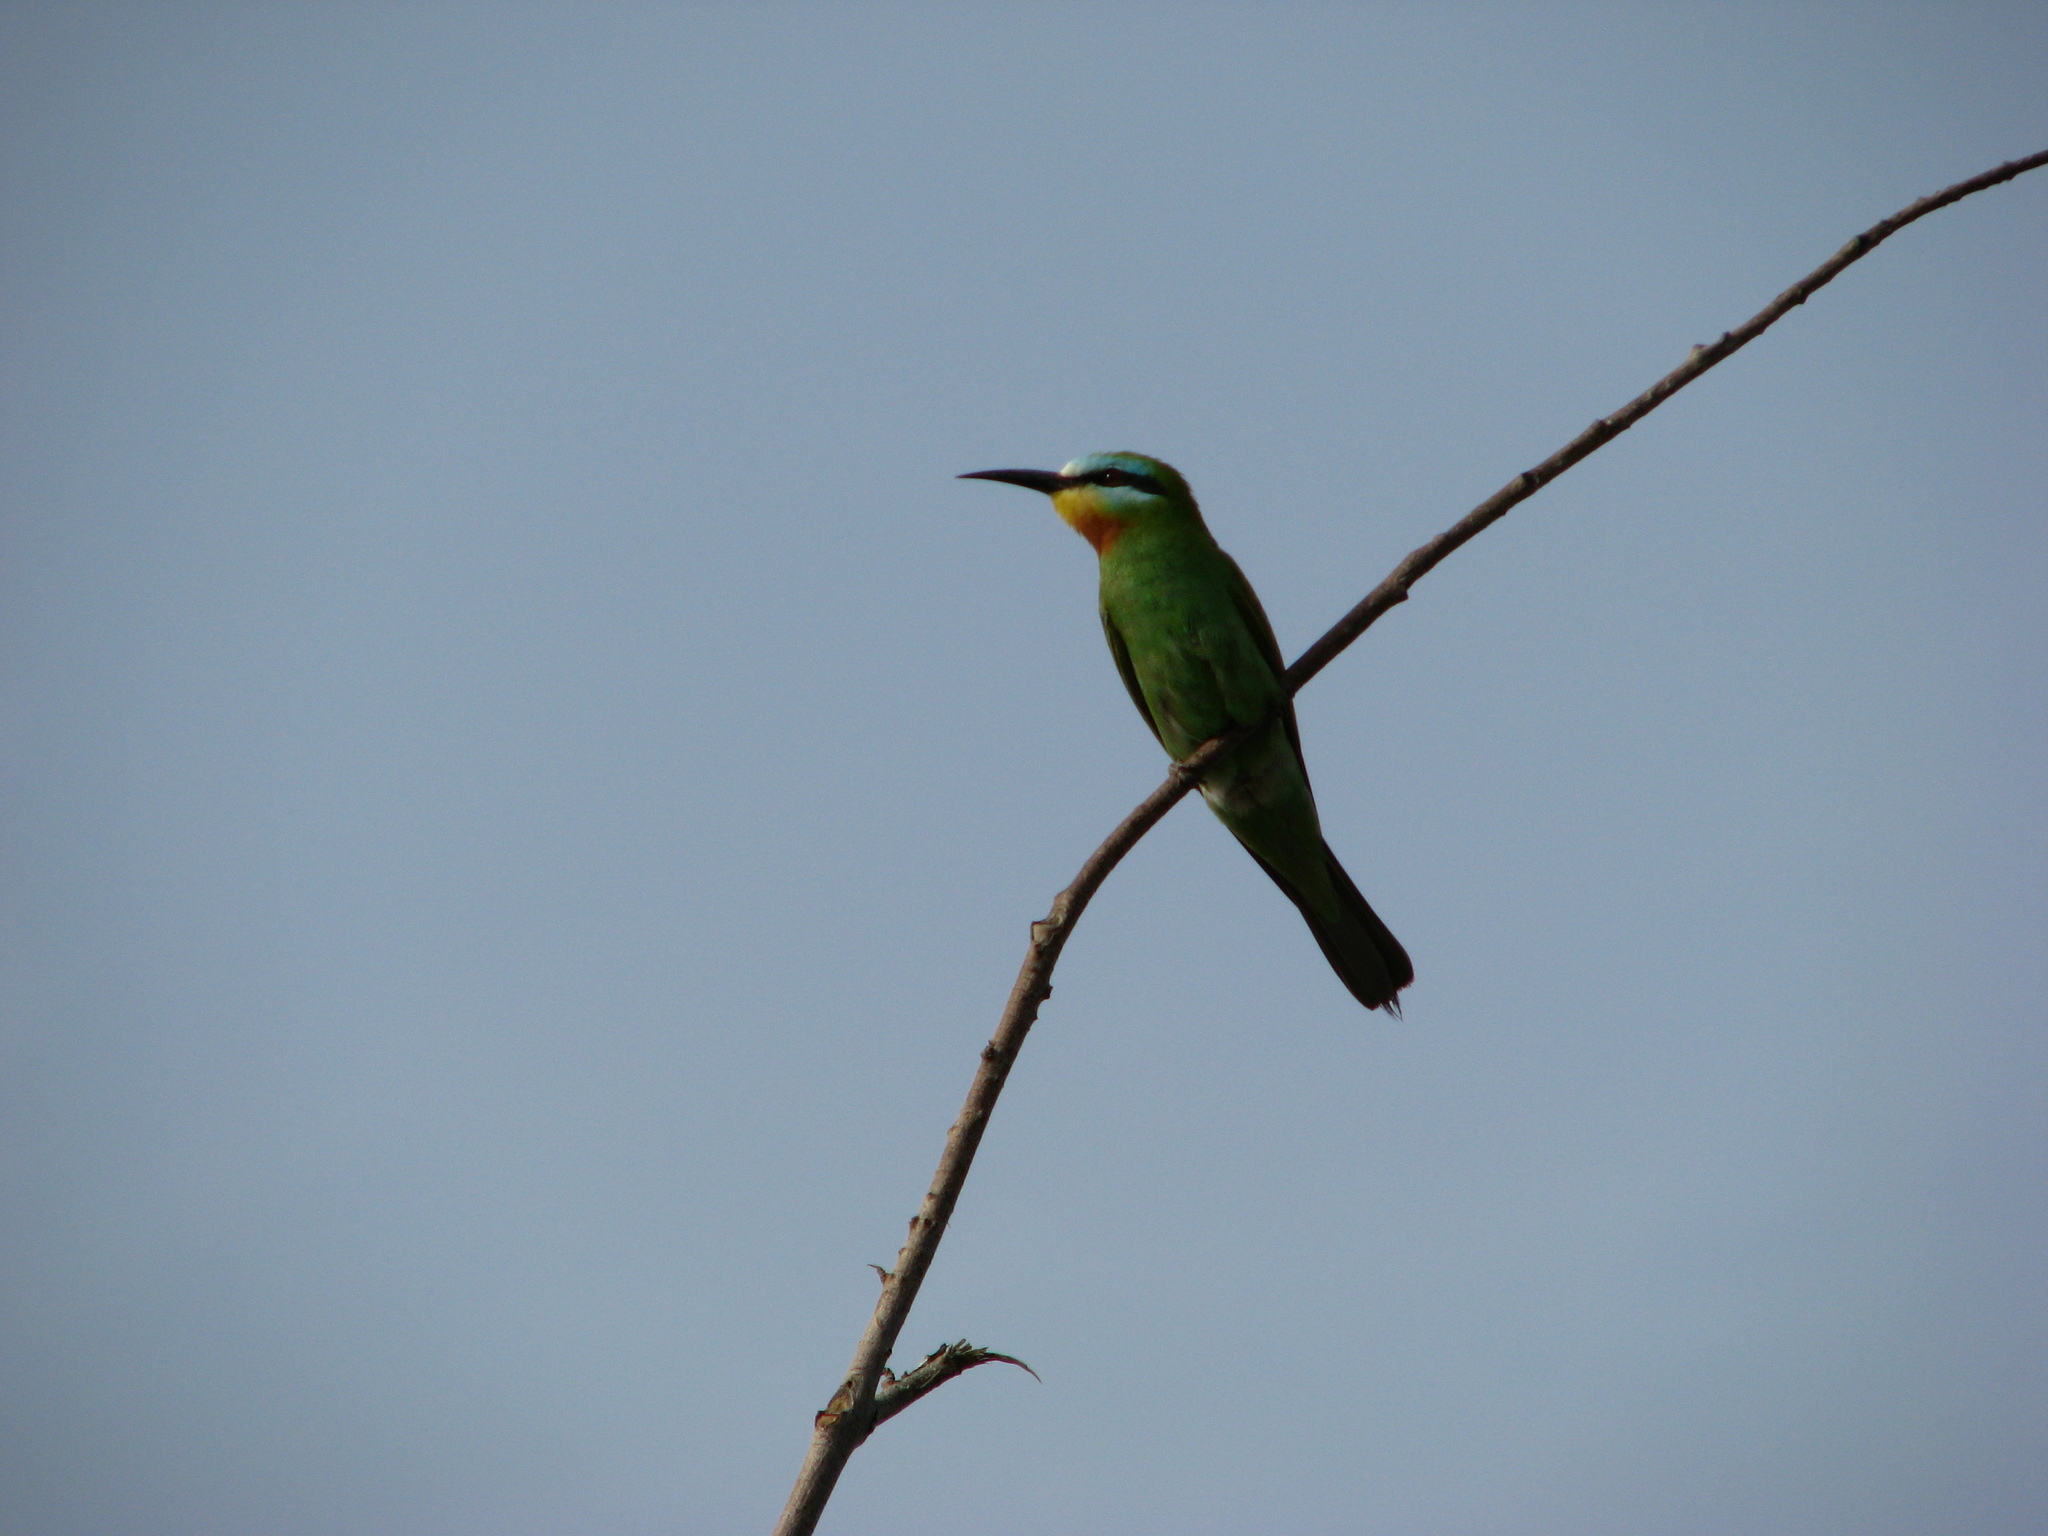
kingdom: Animalia
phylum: Chordata
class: Aves
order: Coraciiformes
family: Meropidae
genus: Merops
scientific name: Merops persicus
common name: Blue-cheeked bee-eater
